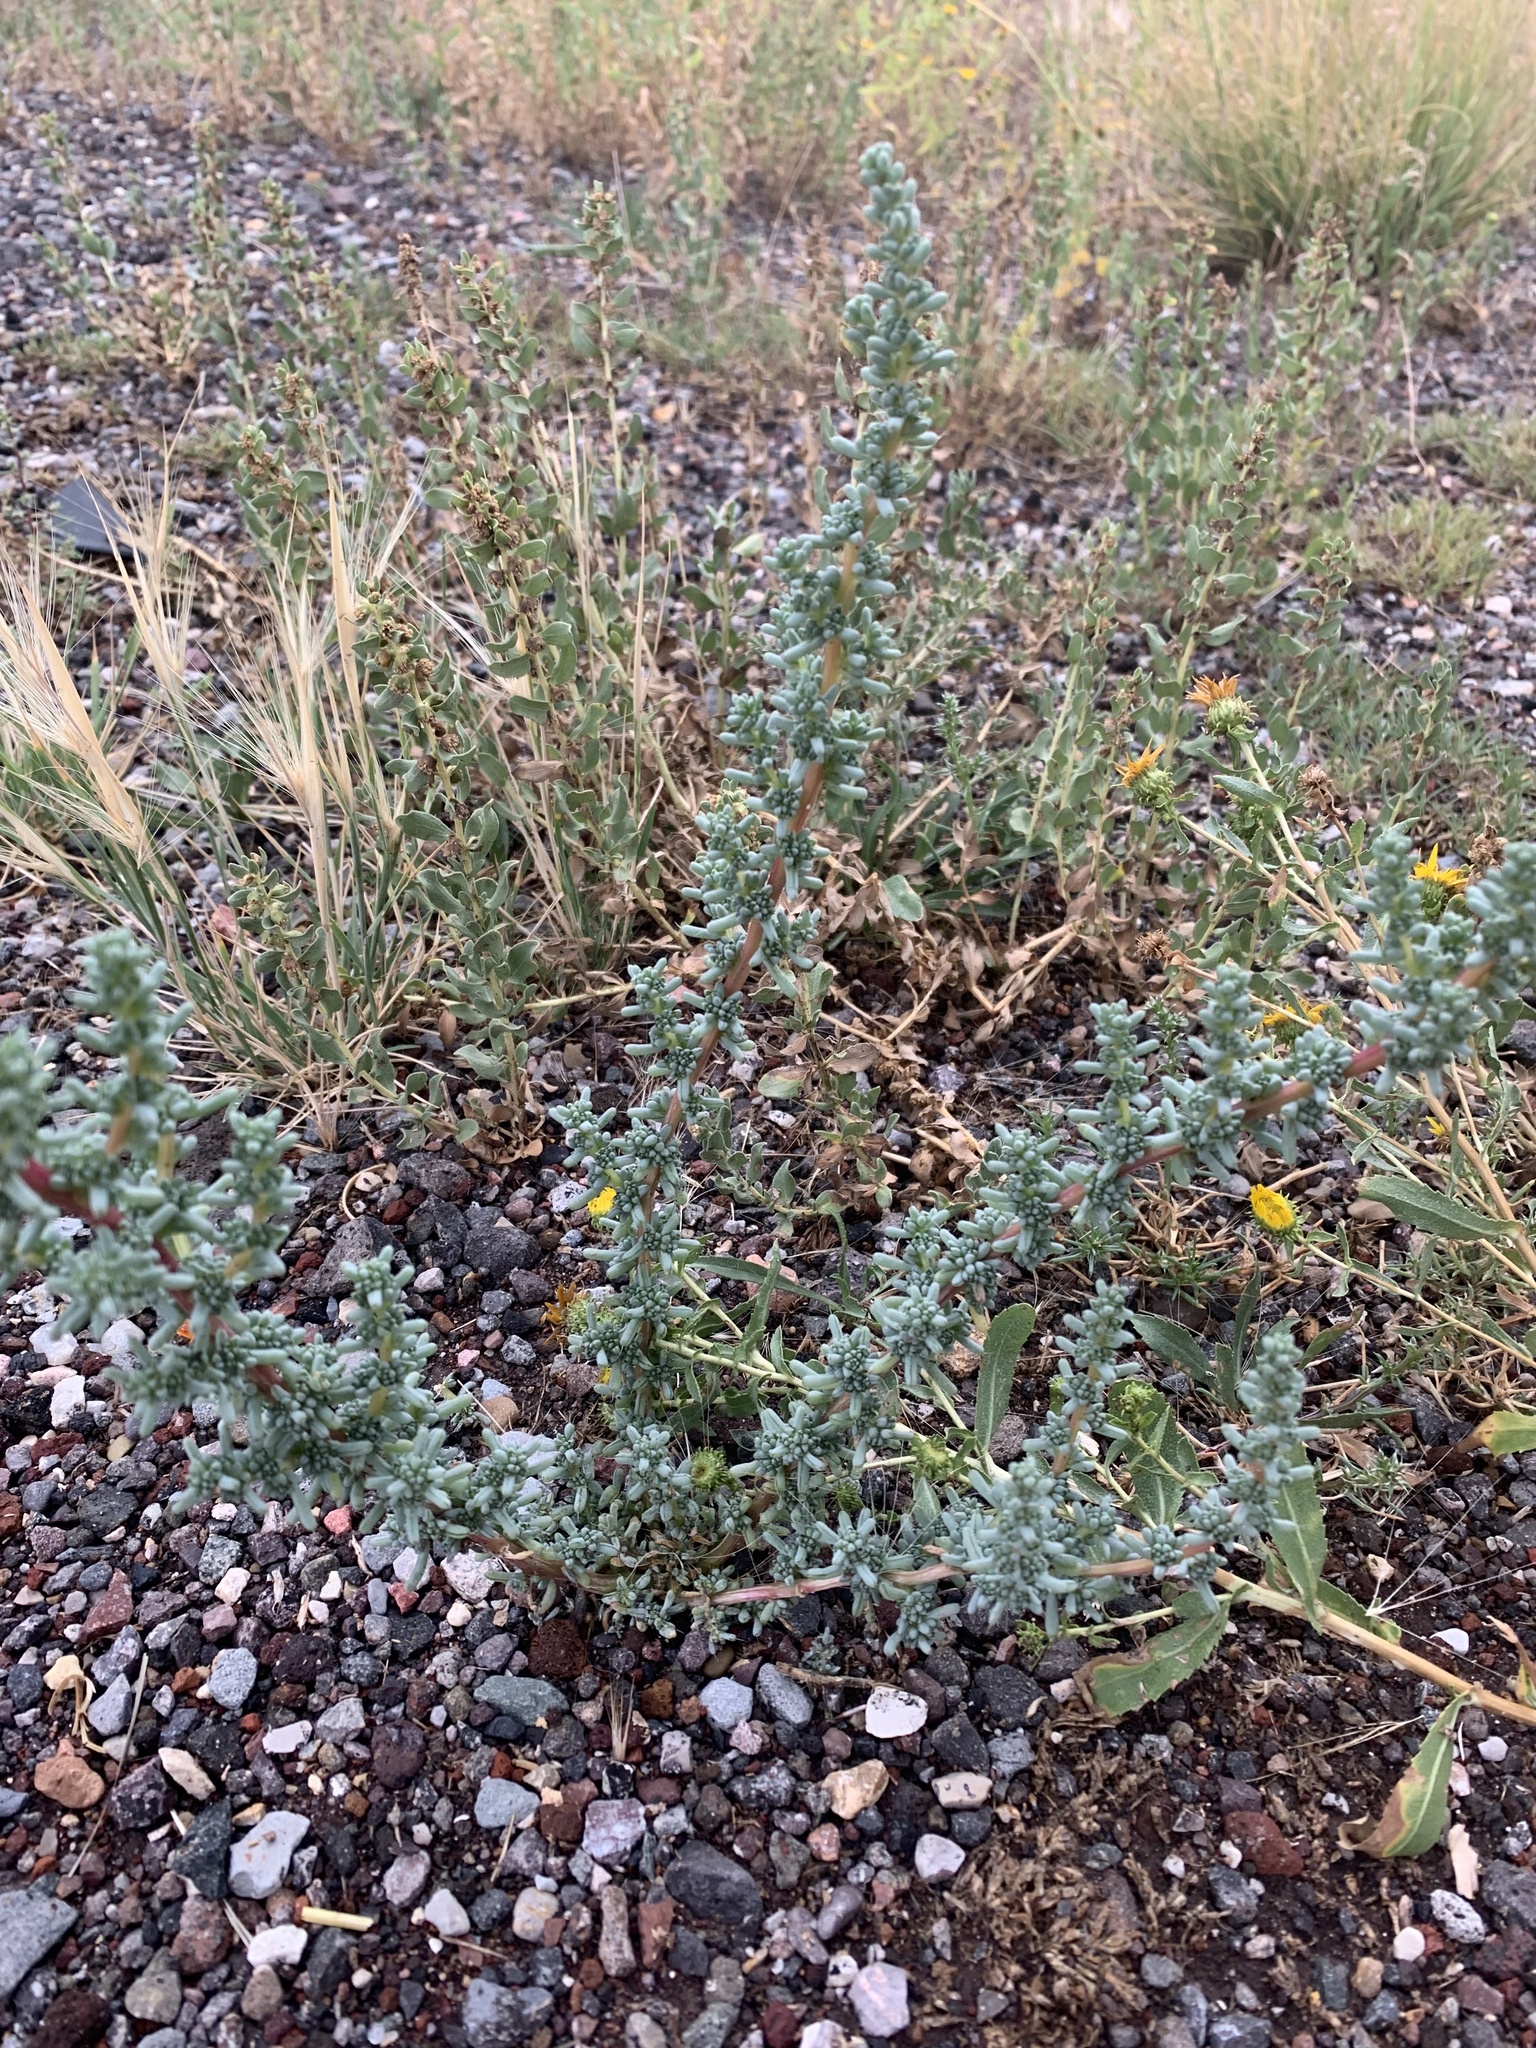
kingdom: Plantae
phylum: Tracheophyta
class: Magnoliopsida
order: Caryophyllales
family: Amaranthaceae
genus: Halogeton
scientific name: Halogeton glomeratus
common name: Saltlover
